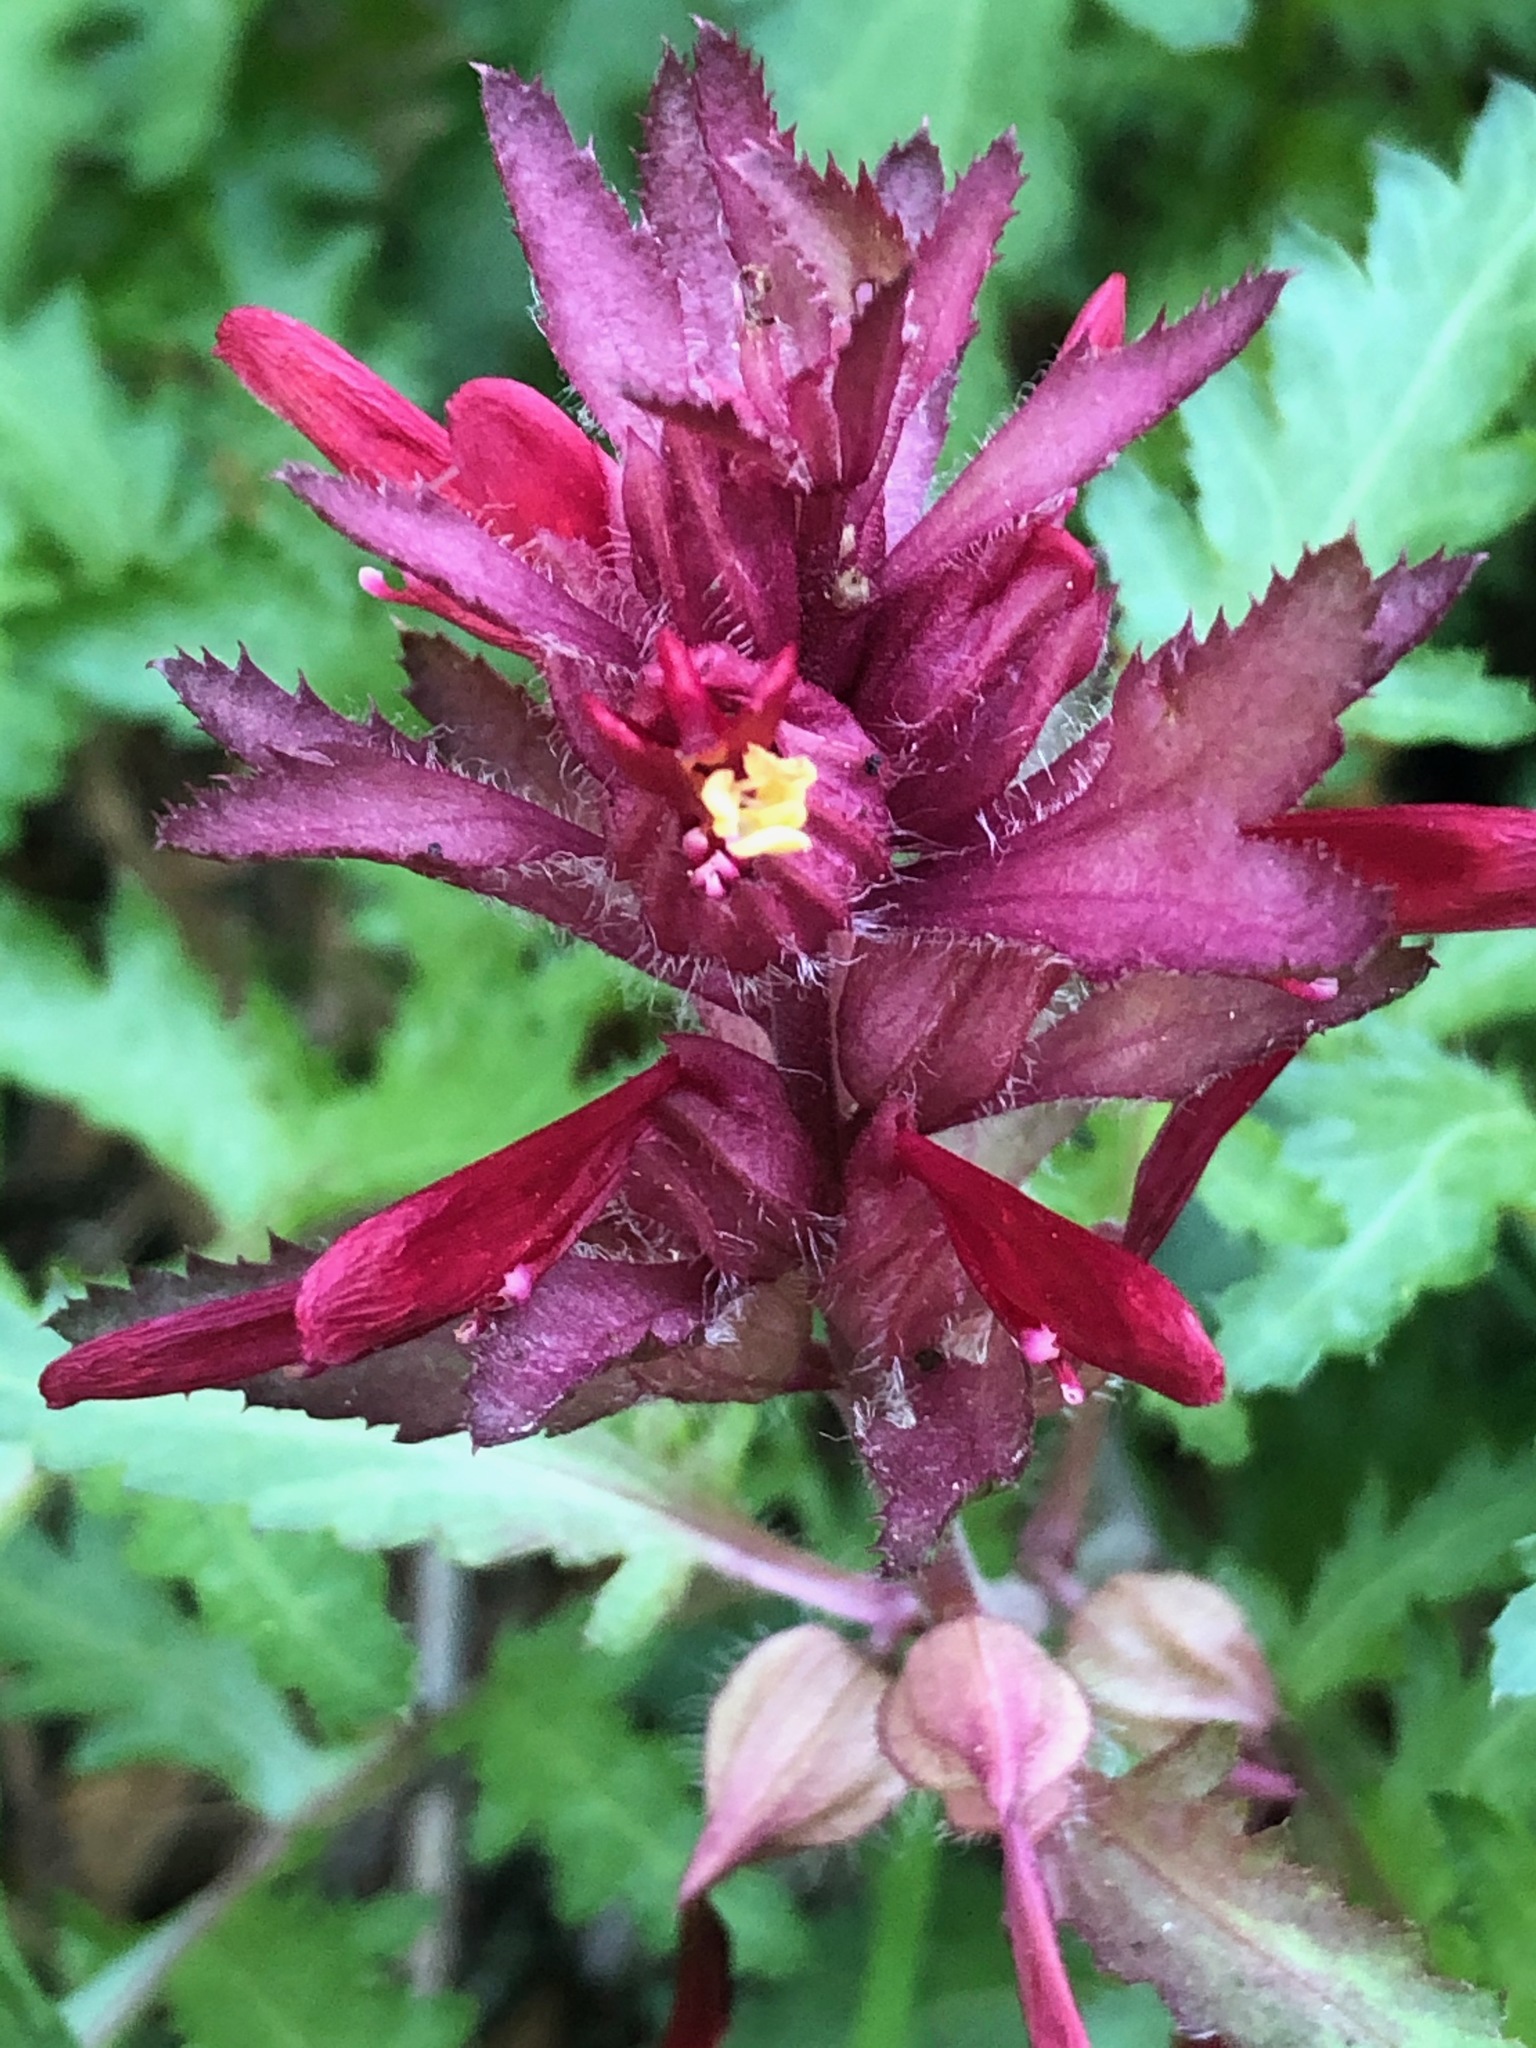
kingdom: Plantae
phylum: Tracheophyta
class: Magnoliopsida
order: Lamiales
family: Orobanchaceae
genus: Pedicularis
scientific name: Pedicularis densiflora
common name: Indian warrior
